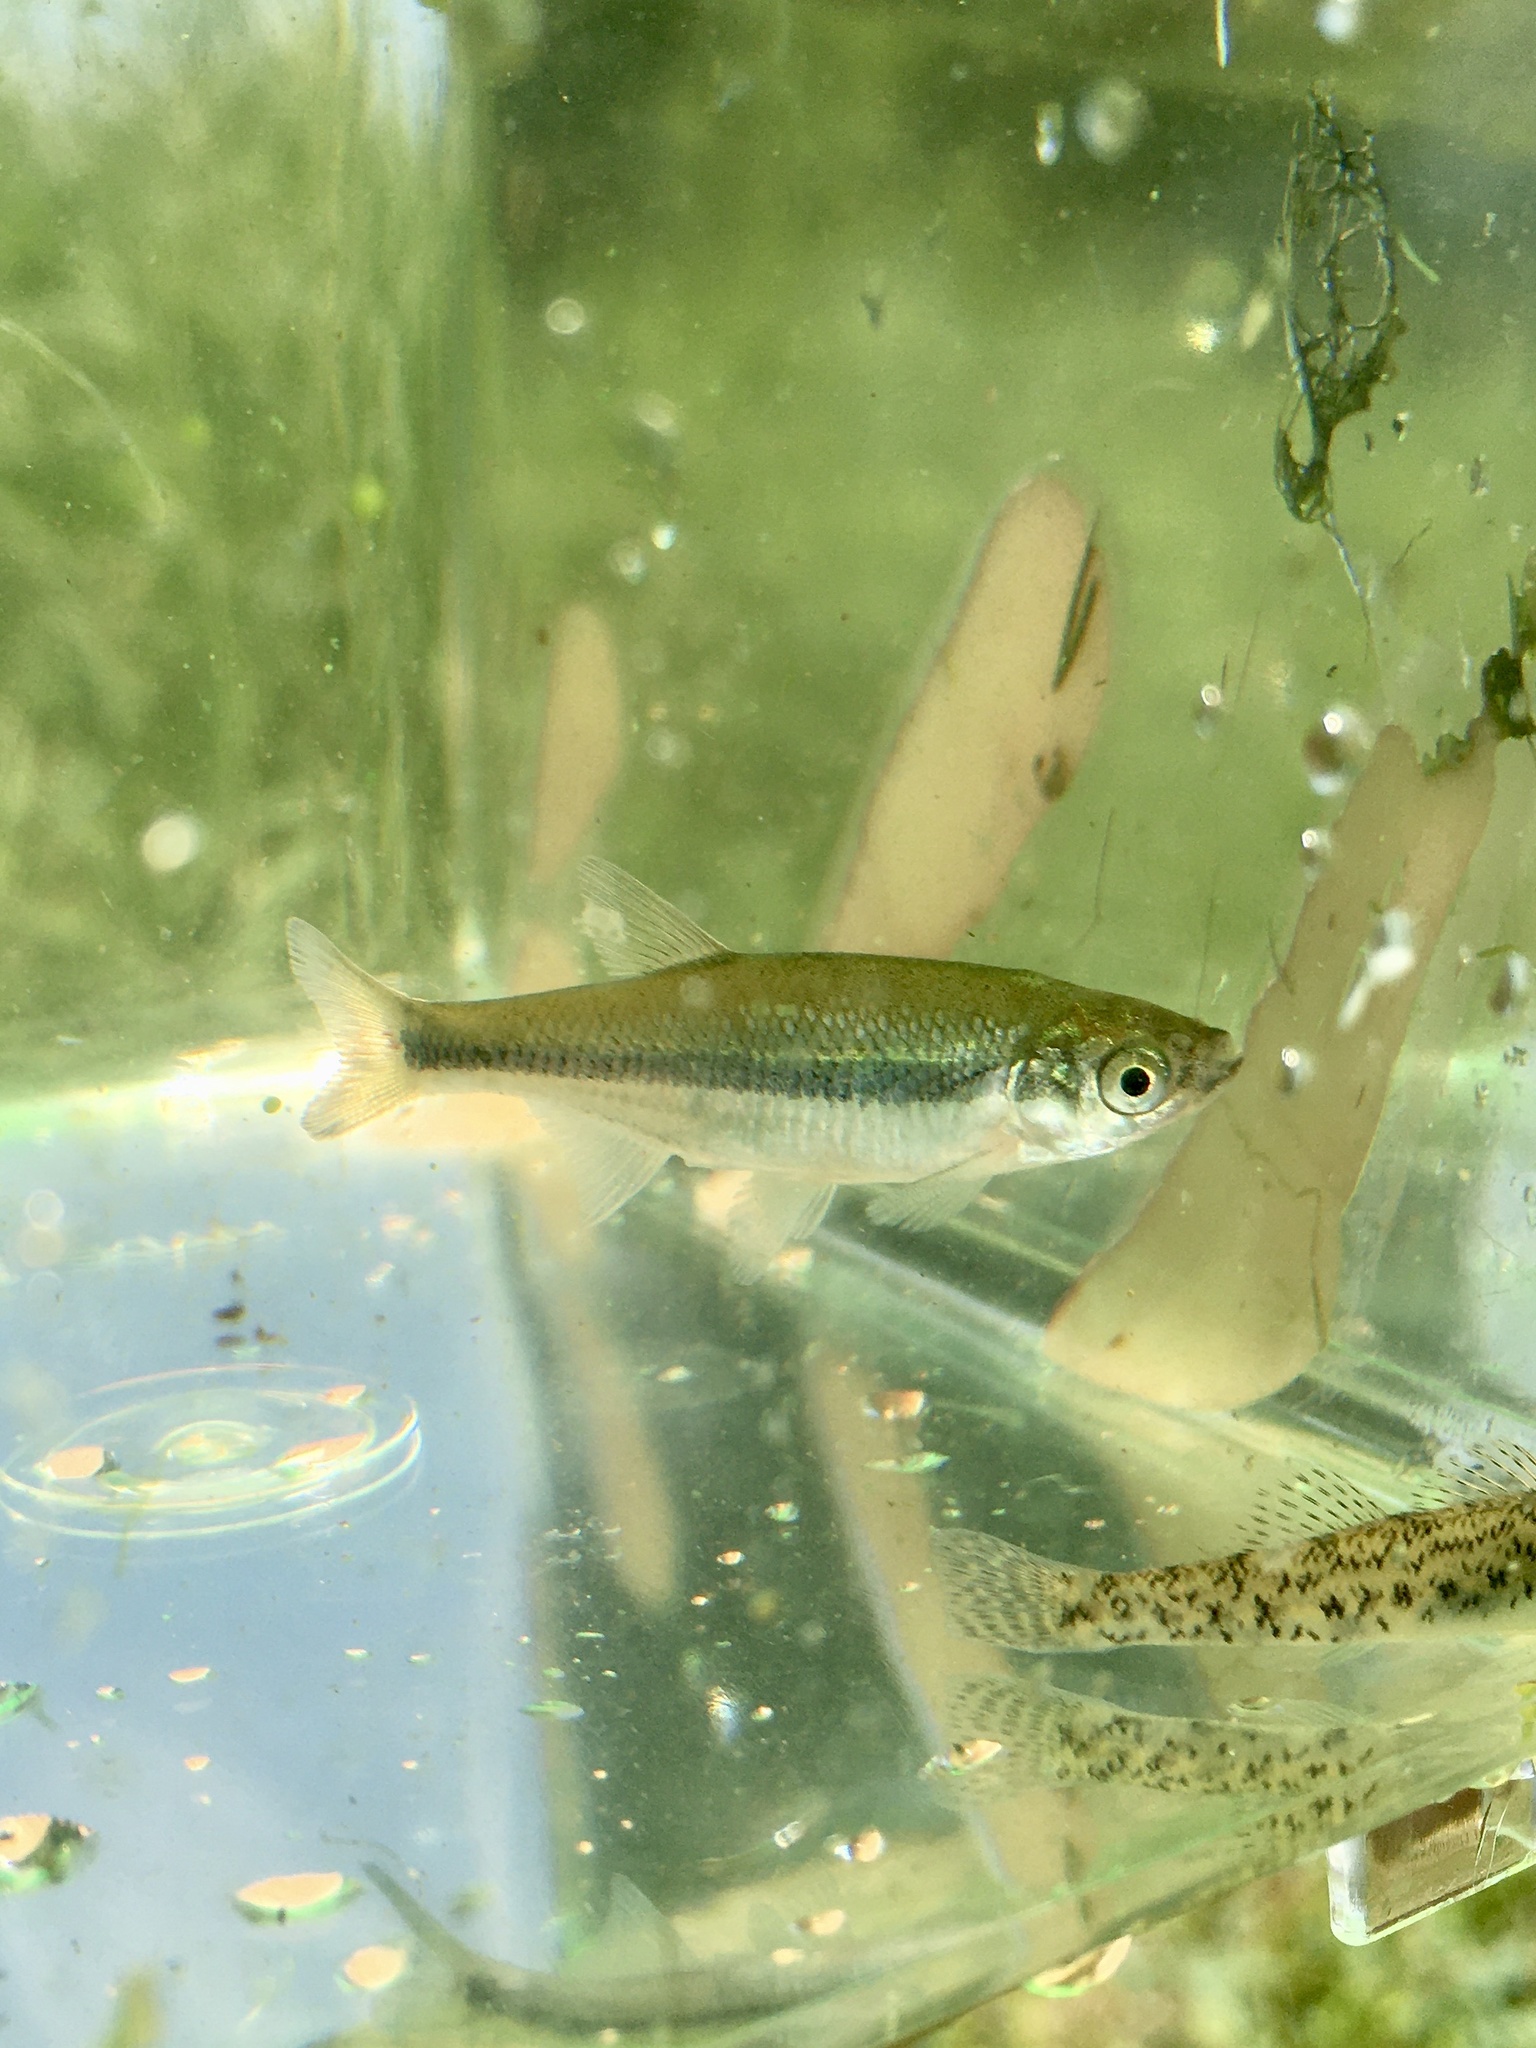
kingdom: Animalia
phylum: Chordata
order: Cypriniformes
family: Cyprinidae
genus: Notemigonus
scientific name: Notemigonus crysoleucas
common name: Golden shiner
